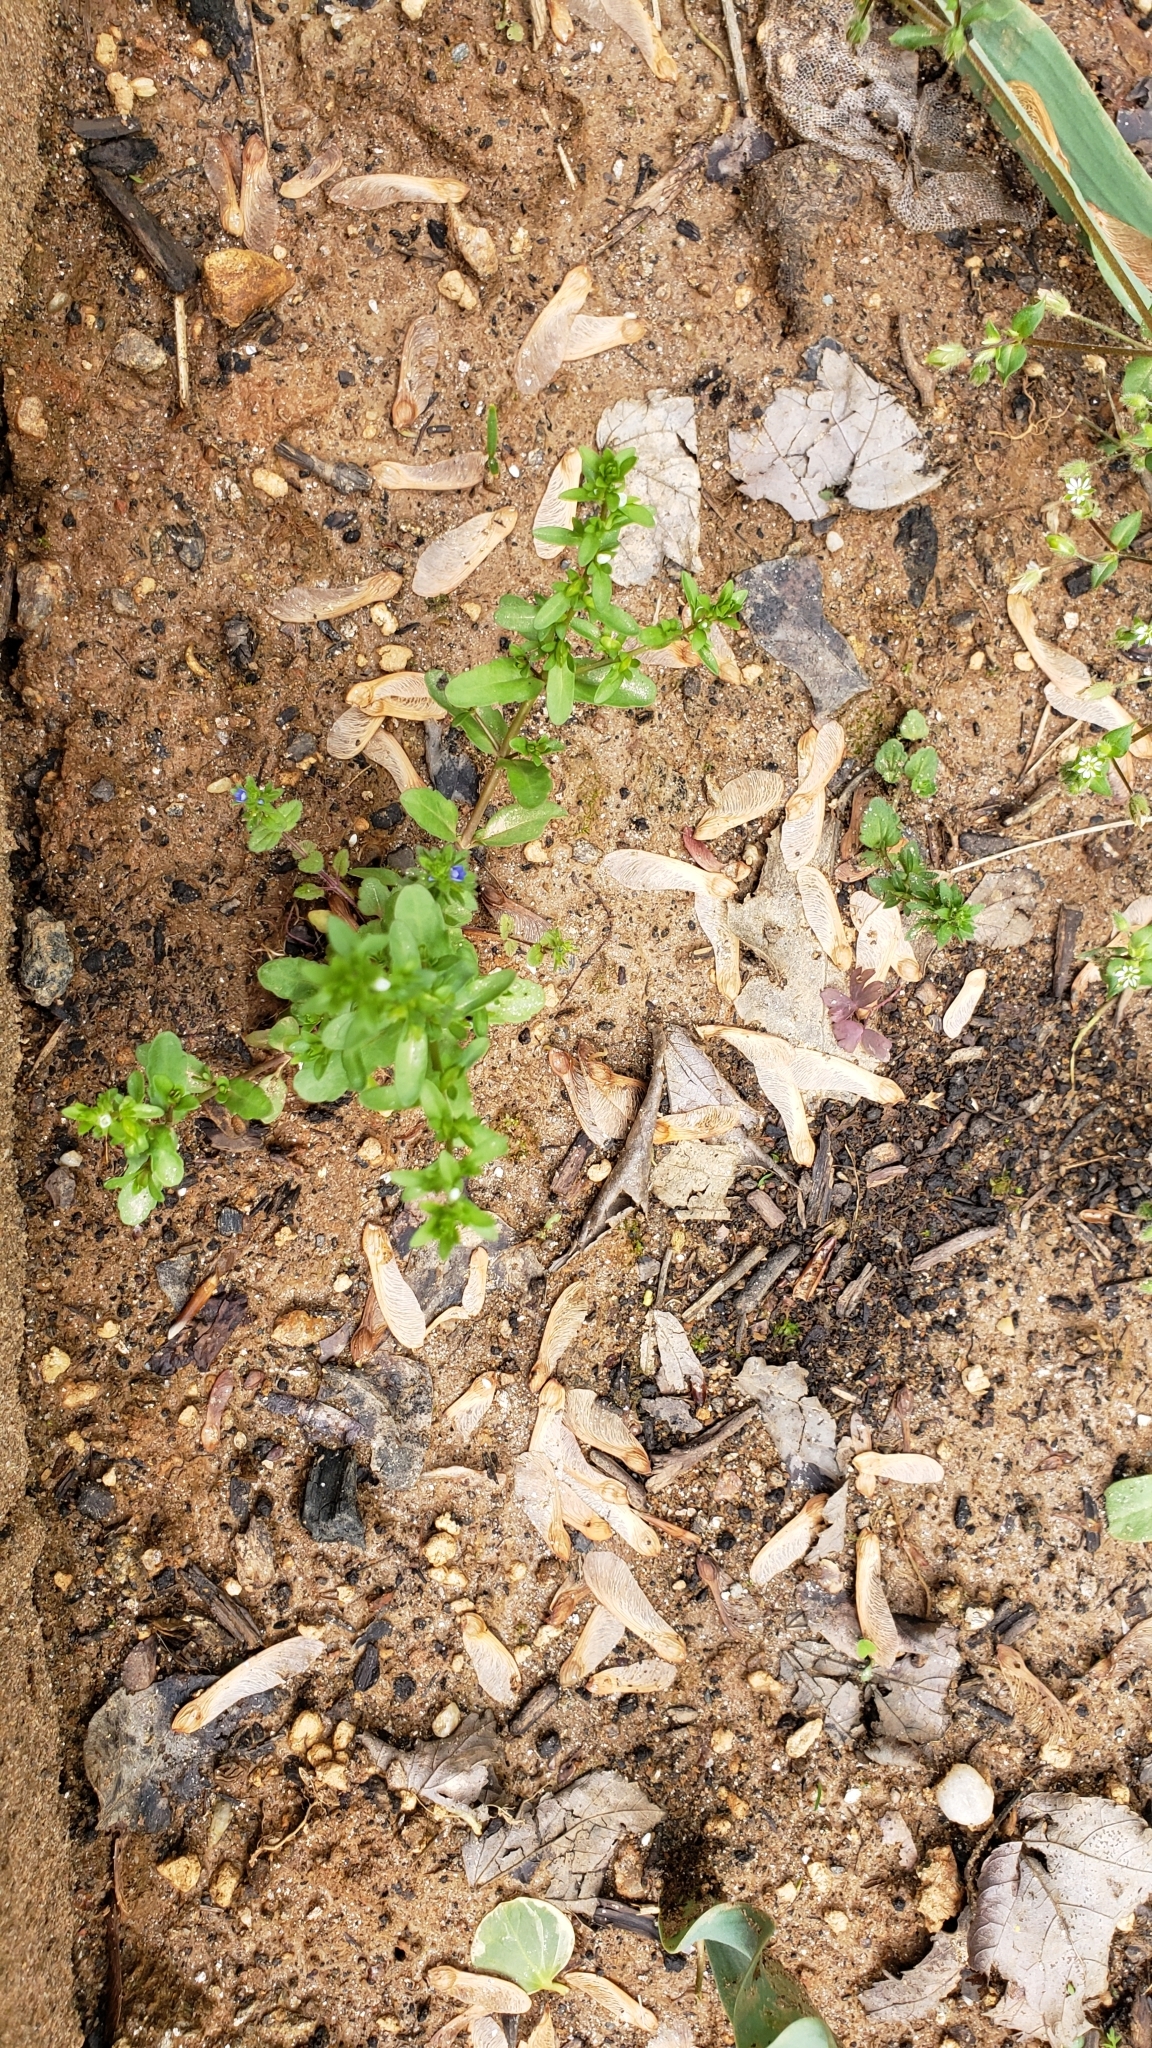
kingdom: Plantae
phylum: Tracheophyta
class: Magnoliopsida
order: Lamiales
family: Plantaginaceae
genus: Veronica
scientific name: Veronica arvensis
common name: Corn speedwell
